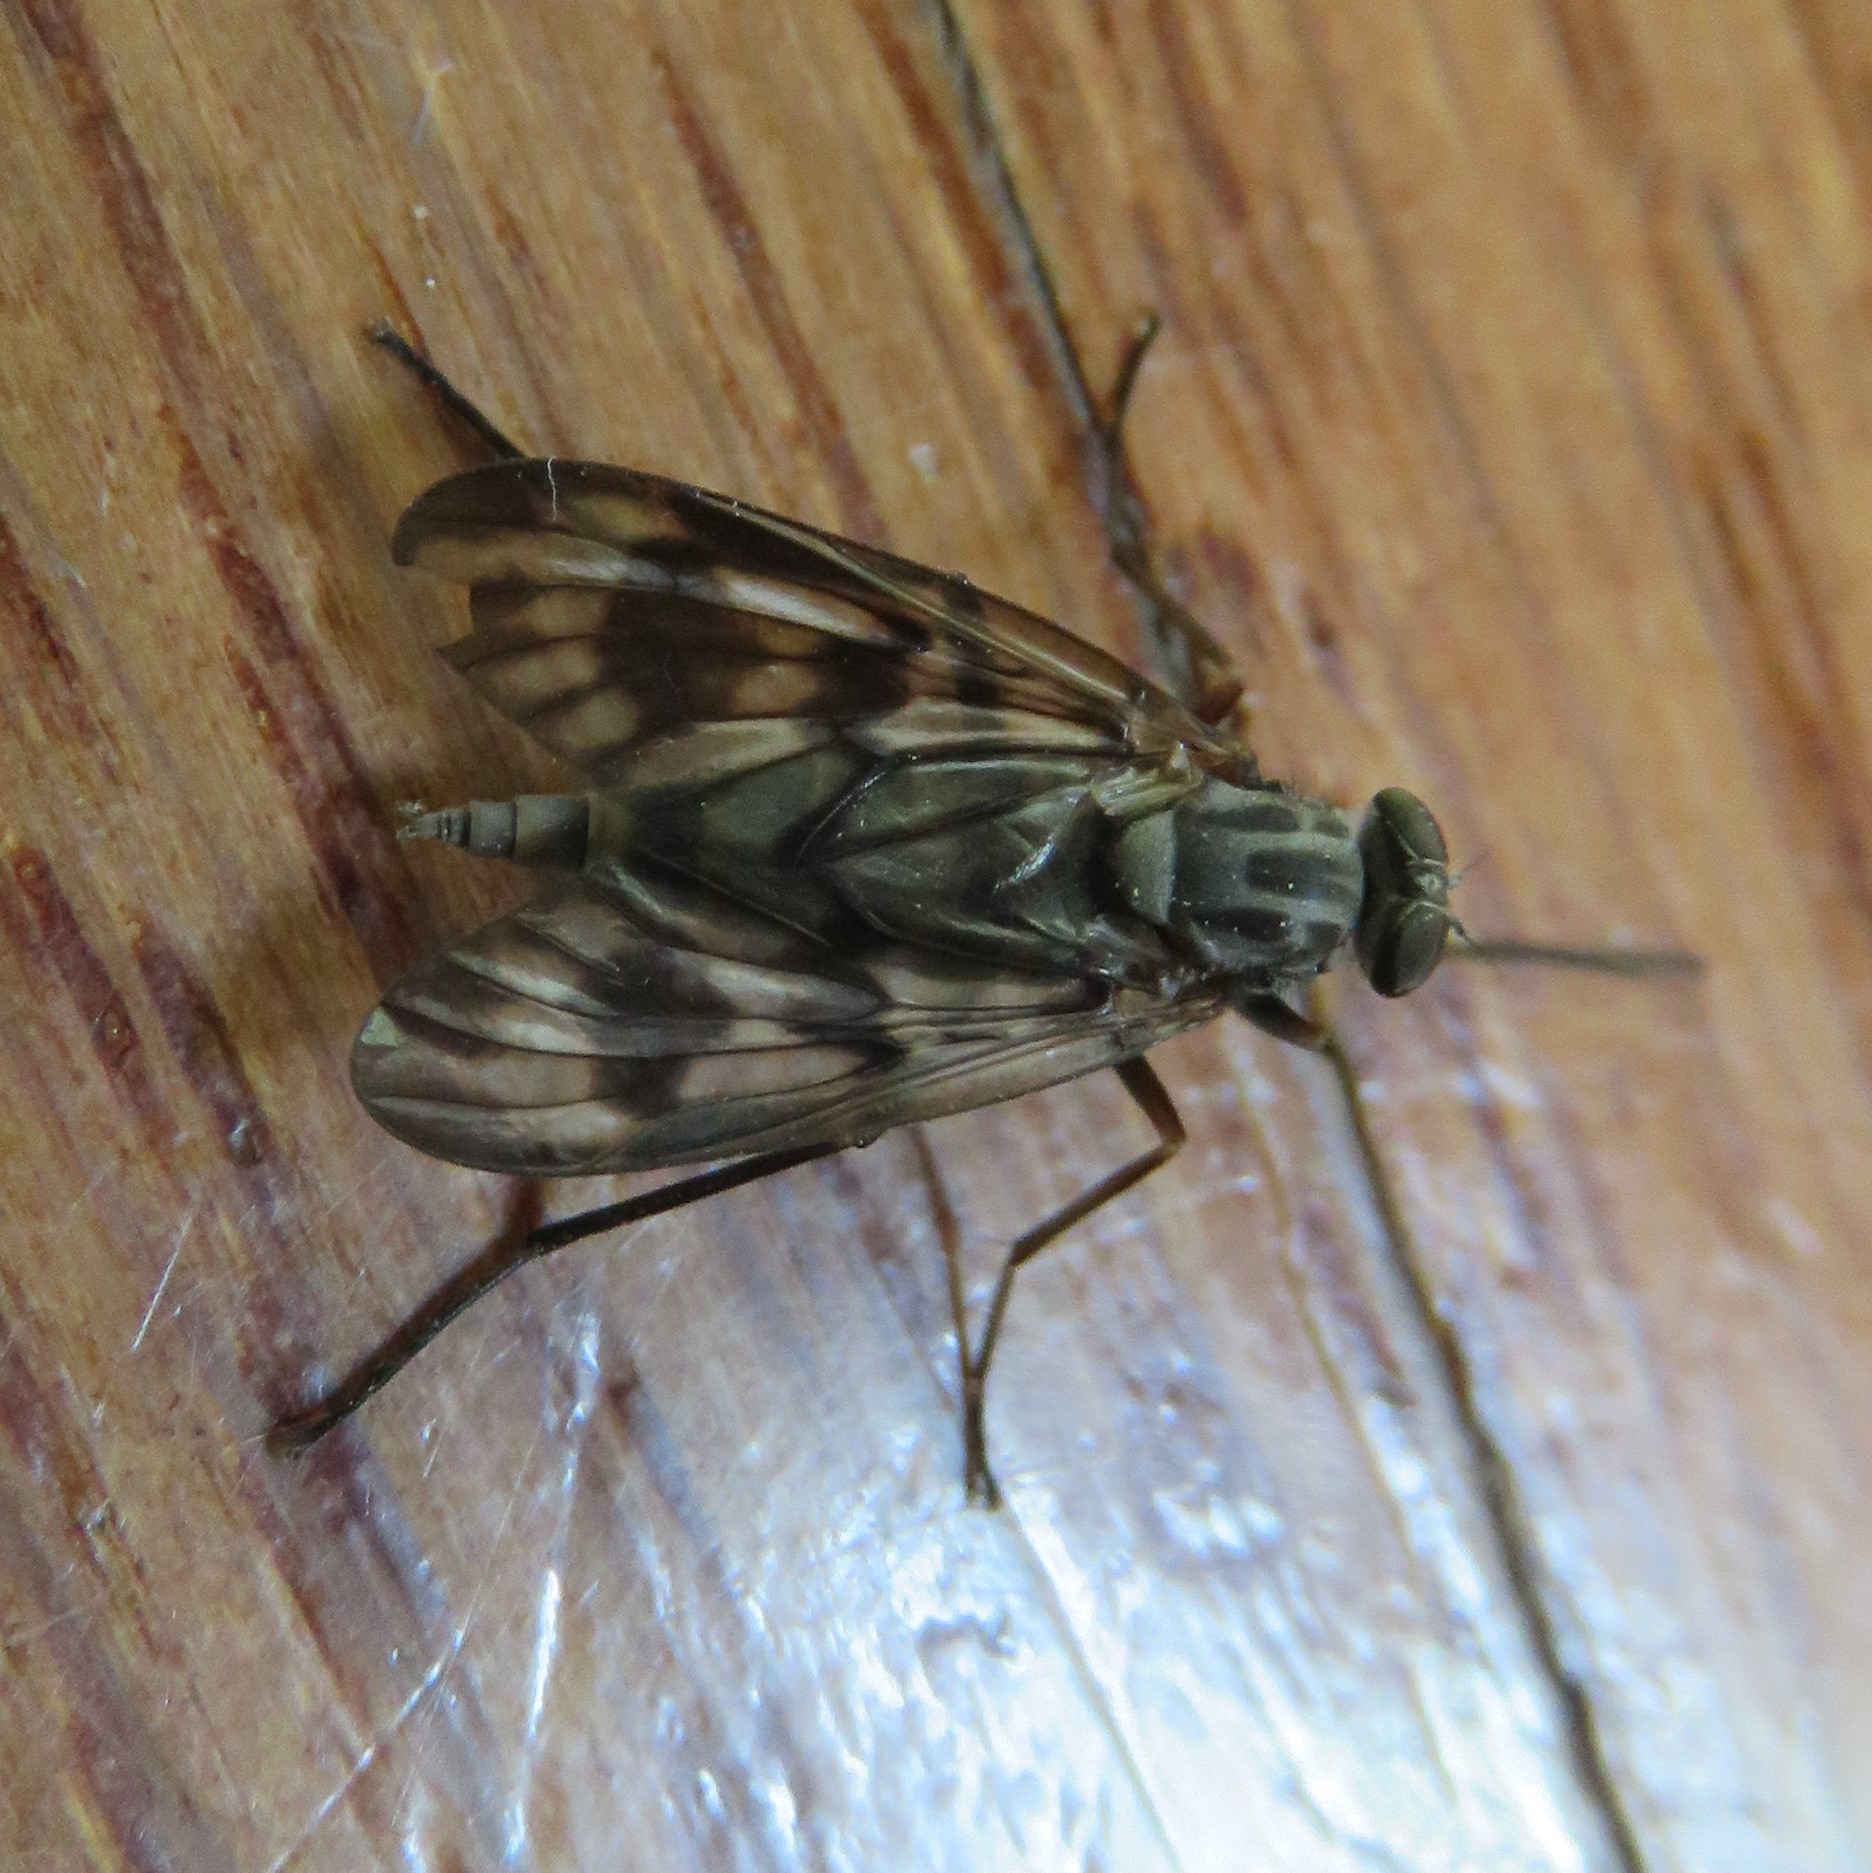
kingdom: Animalia
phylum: Arthropoda
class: Insecta
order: Diptera
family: Rhagionidae
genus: Rhagio
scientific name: Rhagio mystaceus
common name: Common snipe fly
